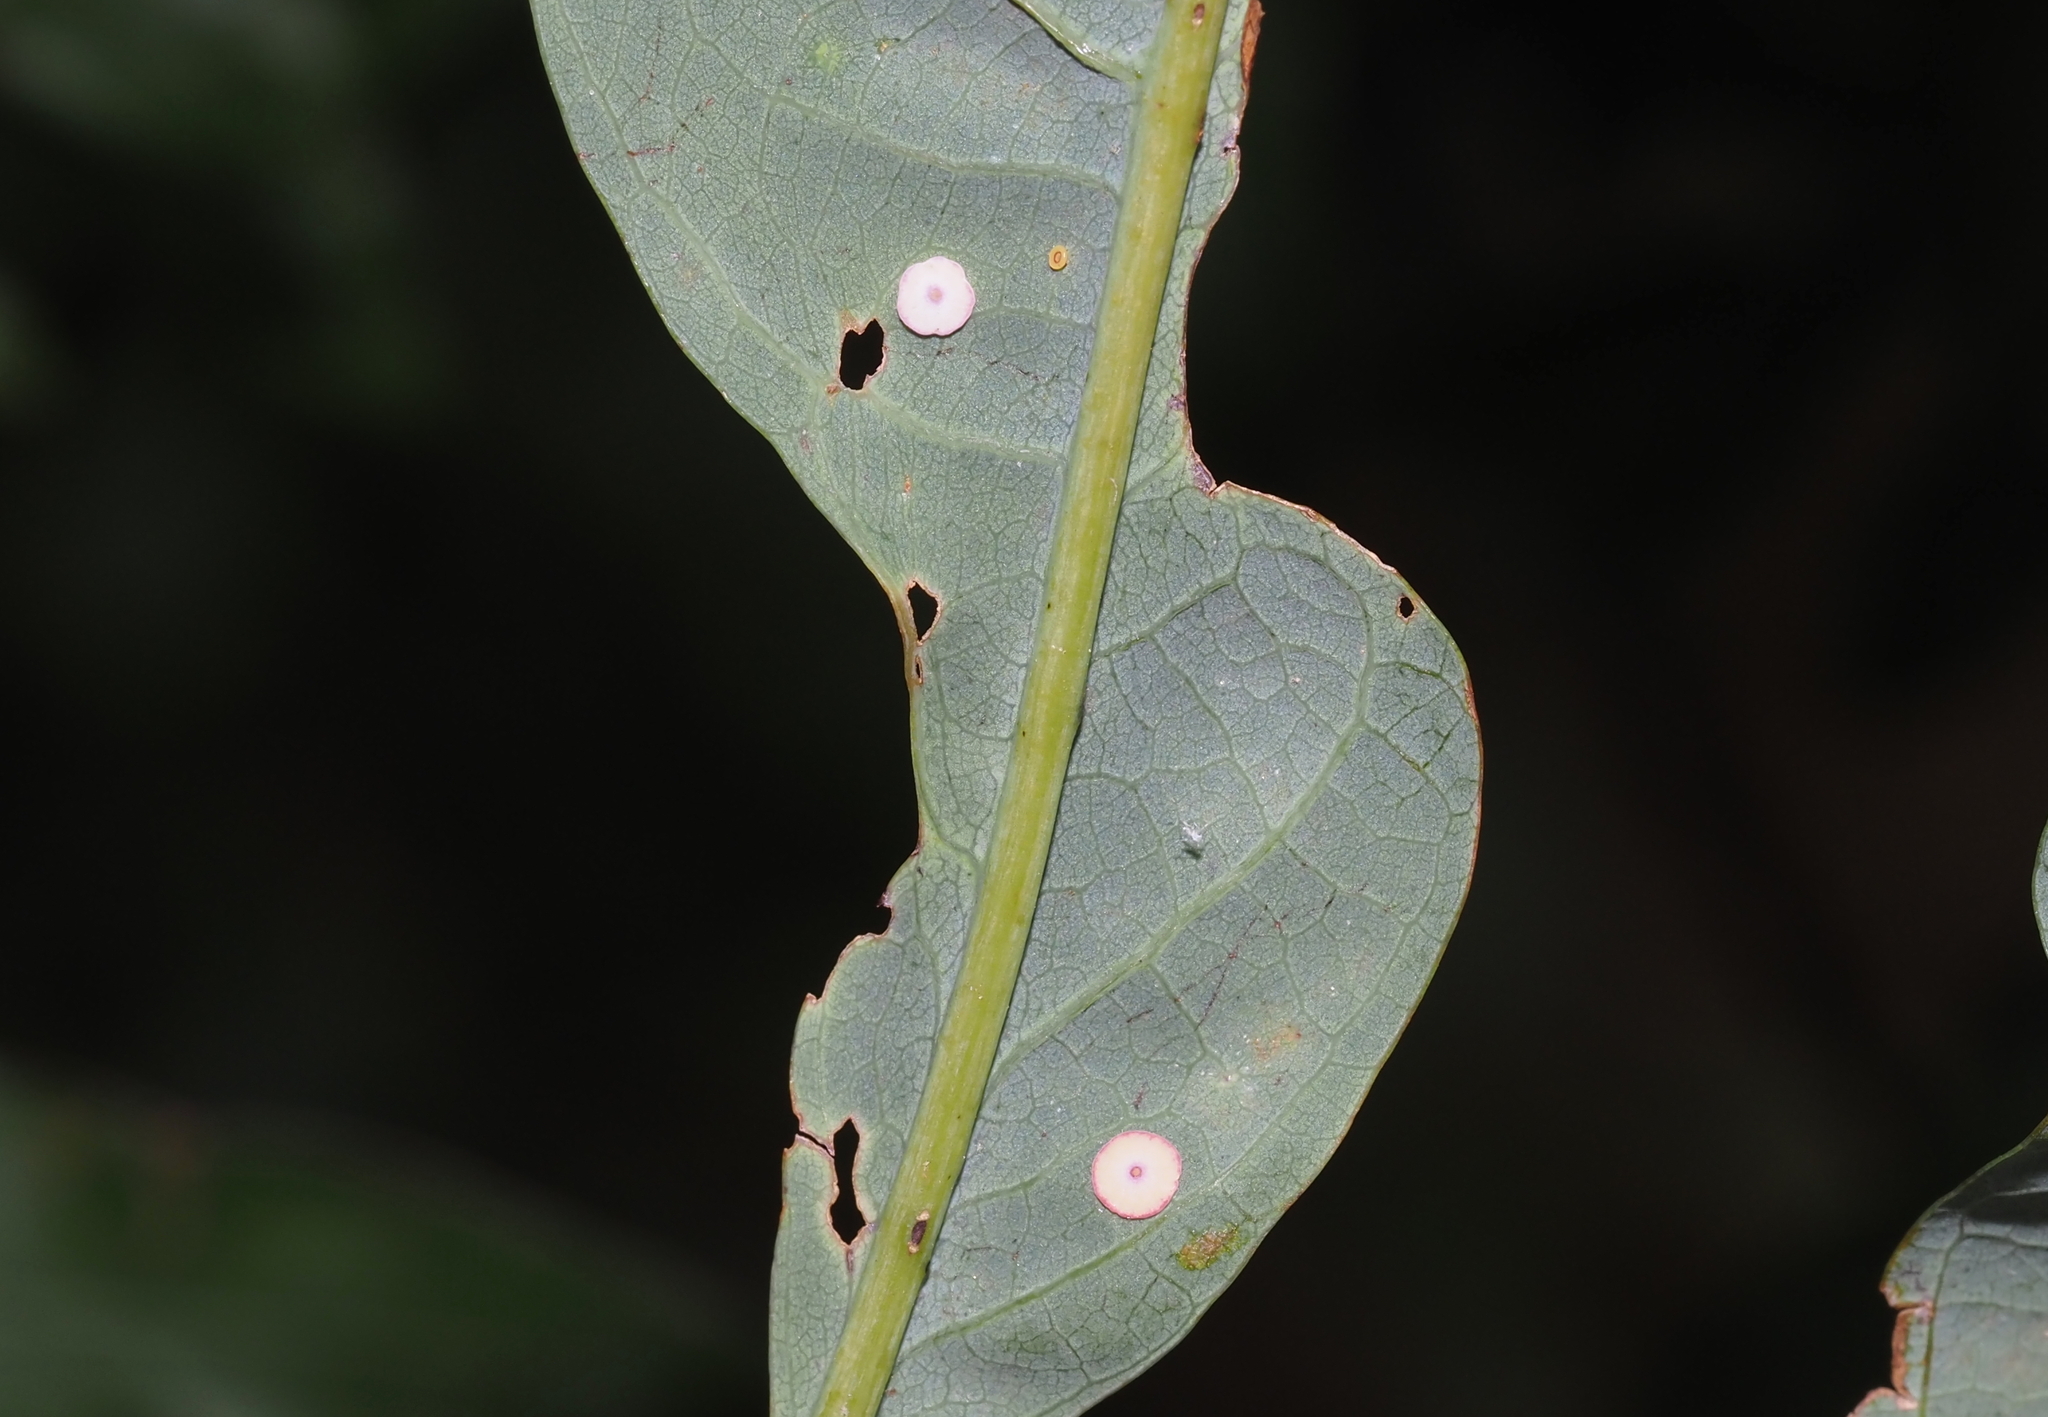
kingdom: Animalia
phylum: Arthropoda
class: Insecta
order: Hymenoptera
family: Cynipidae
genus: Phylloteras
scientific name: Phylloteras poculum
